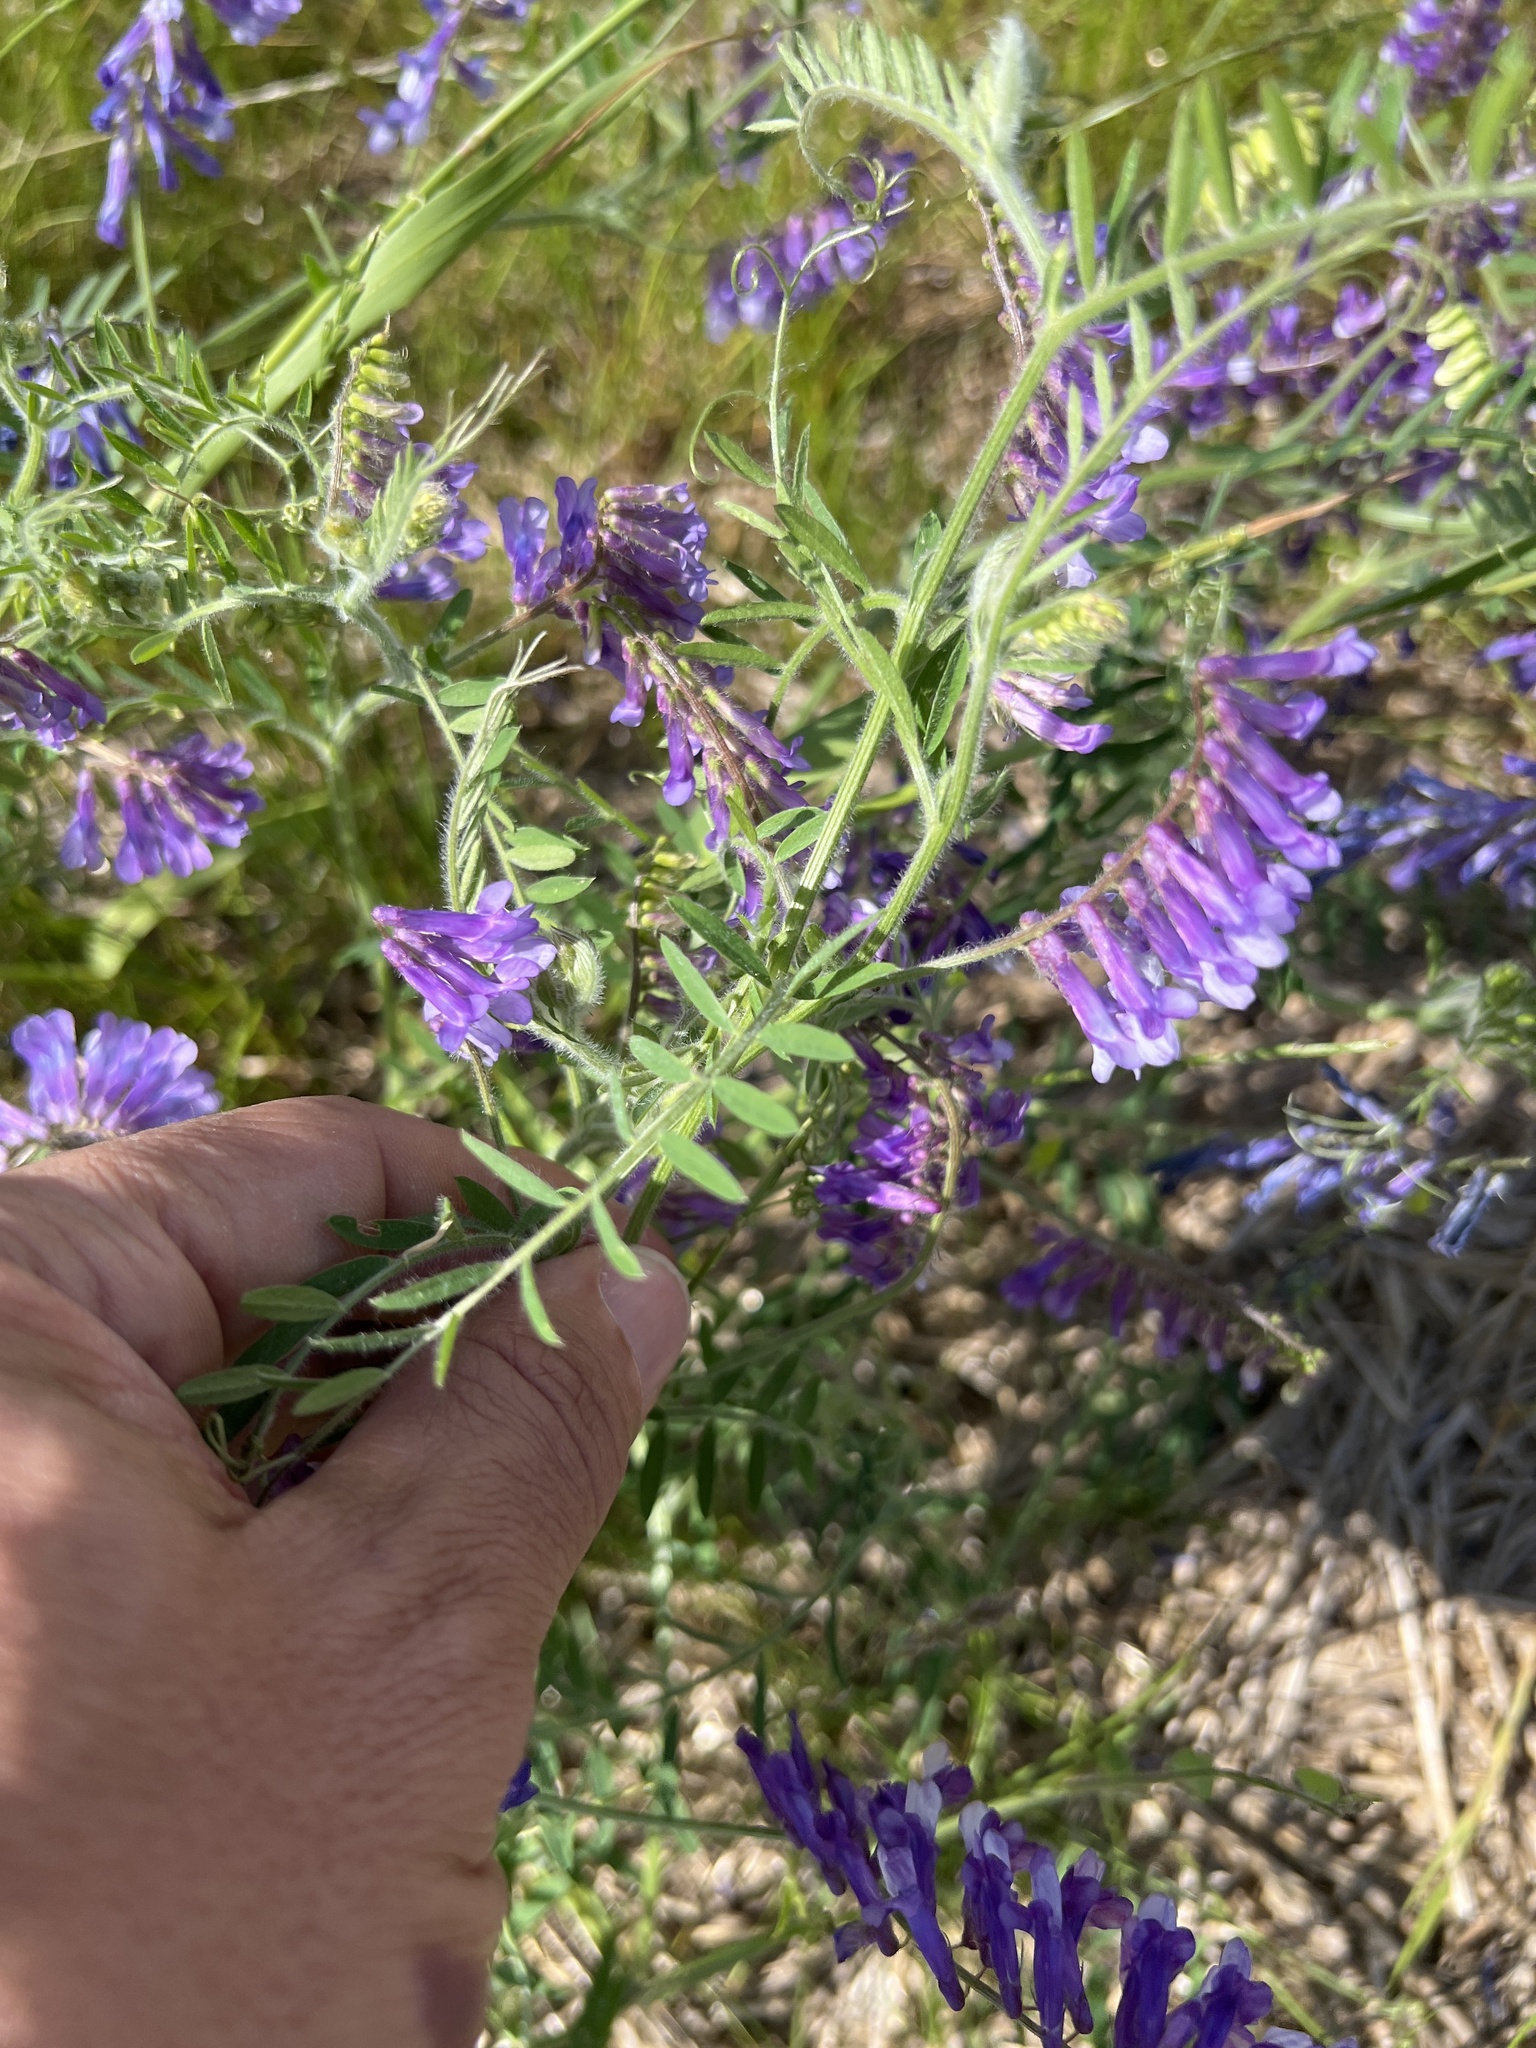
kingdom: Plantae
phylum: Tracheophyta
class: Magnoliopsida
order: Fabales
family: Fabaceae
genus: Vicia
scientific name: Vicia villosa
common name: Fodder vetch
